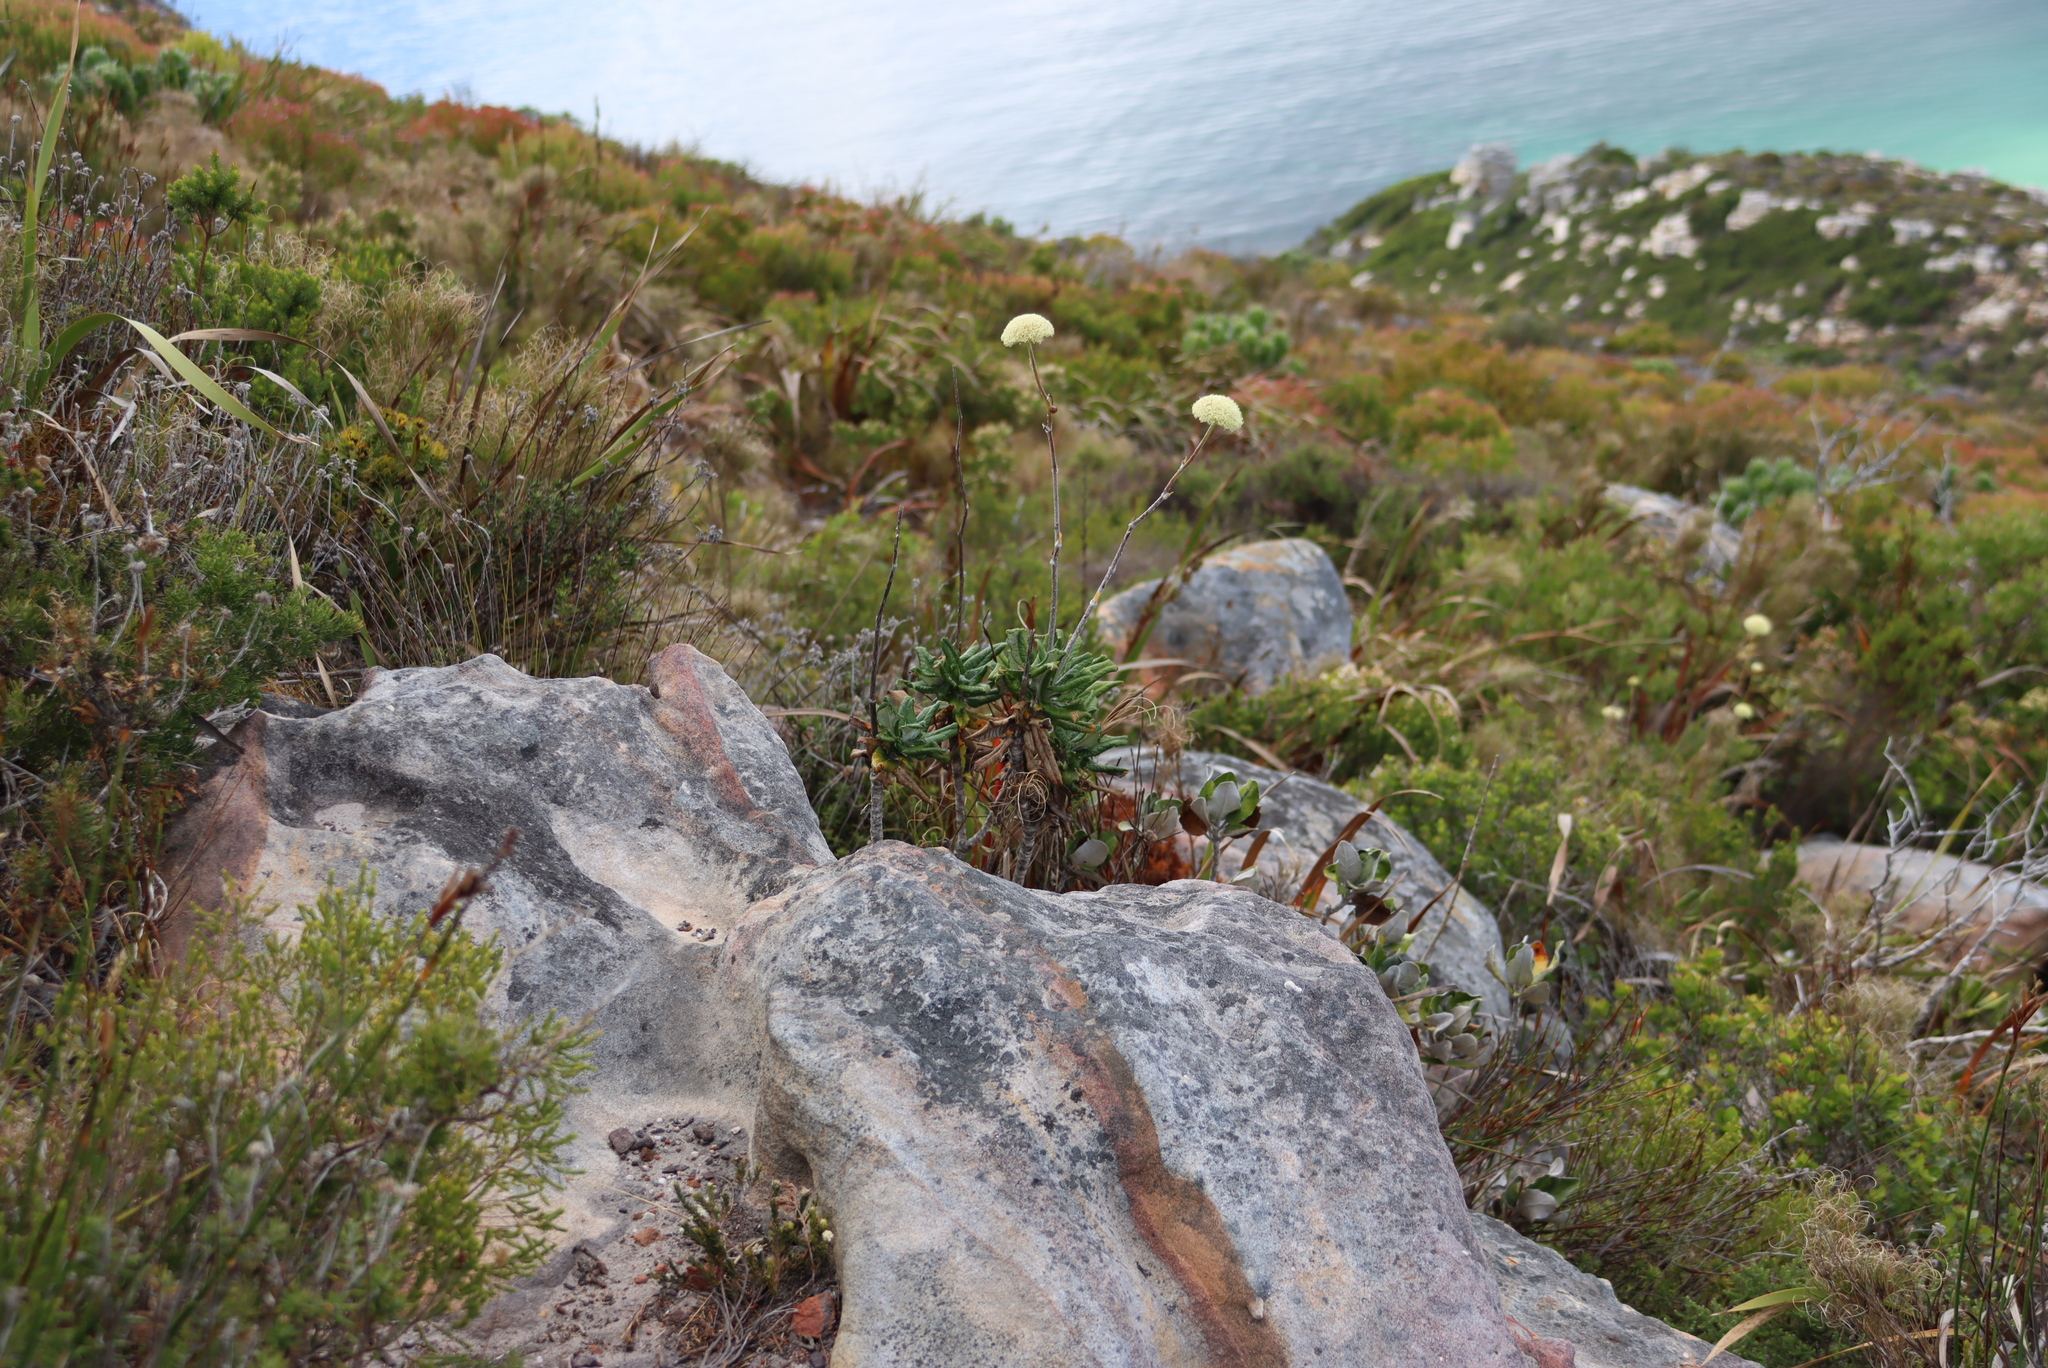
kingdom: Plantae
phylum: Tracheophyta
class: Magnoliopsida
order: Asterales
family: Asteraceae
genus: Capelio
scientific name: Capelio tabularis
